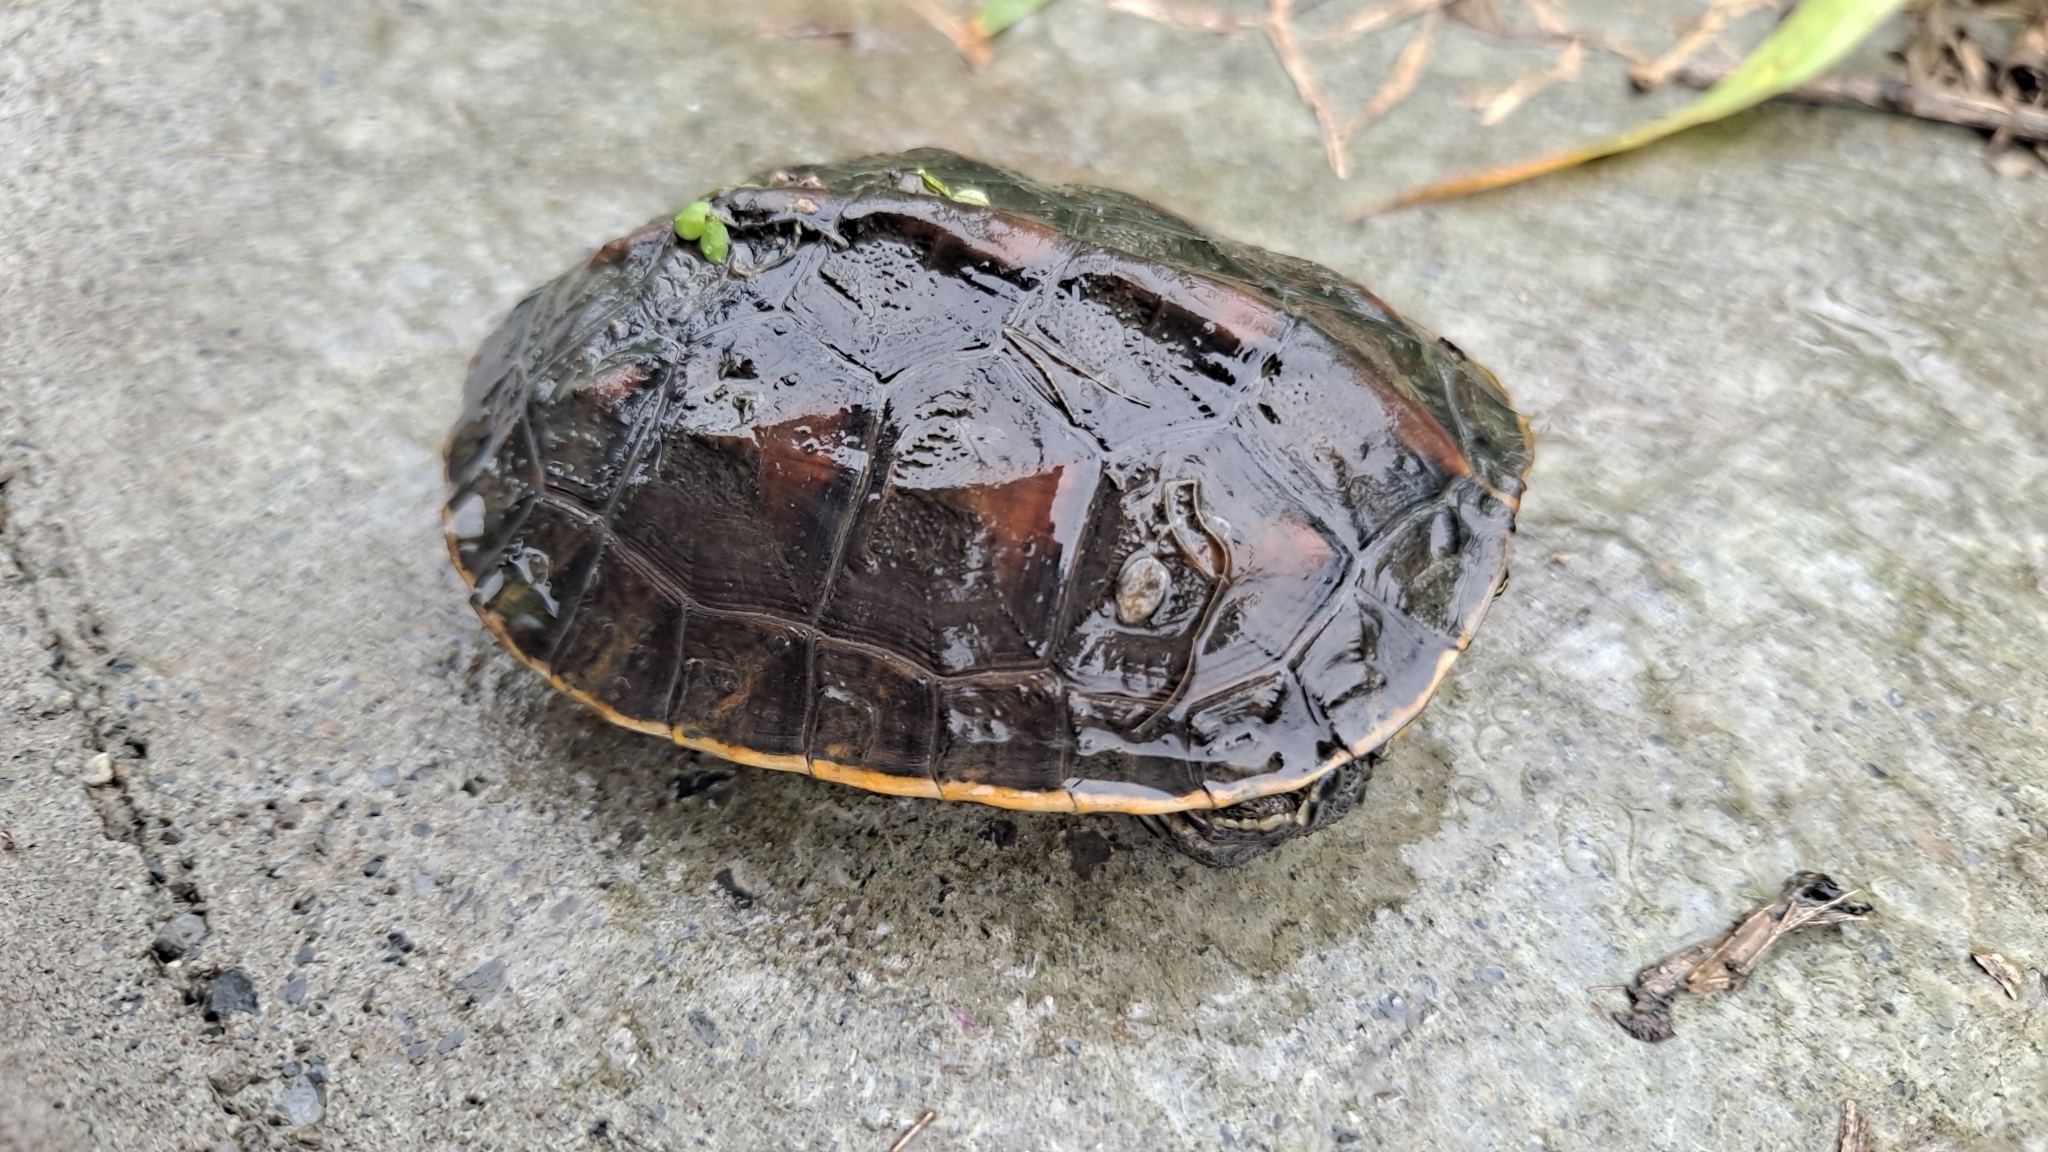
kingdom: Animalia
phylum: Chordata
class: Testudines
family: Geoemydidae
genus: Mauremys
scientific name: Mauremys sinensis
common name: Chinese stripe-necked turtle
